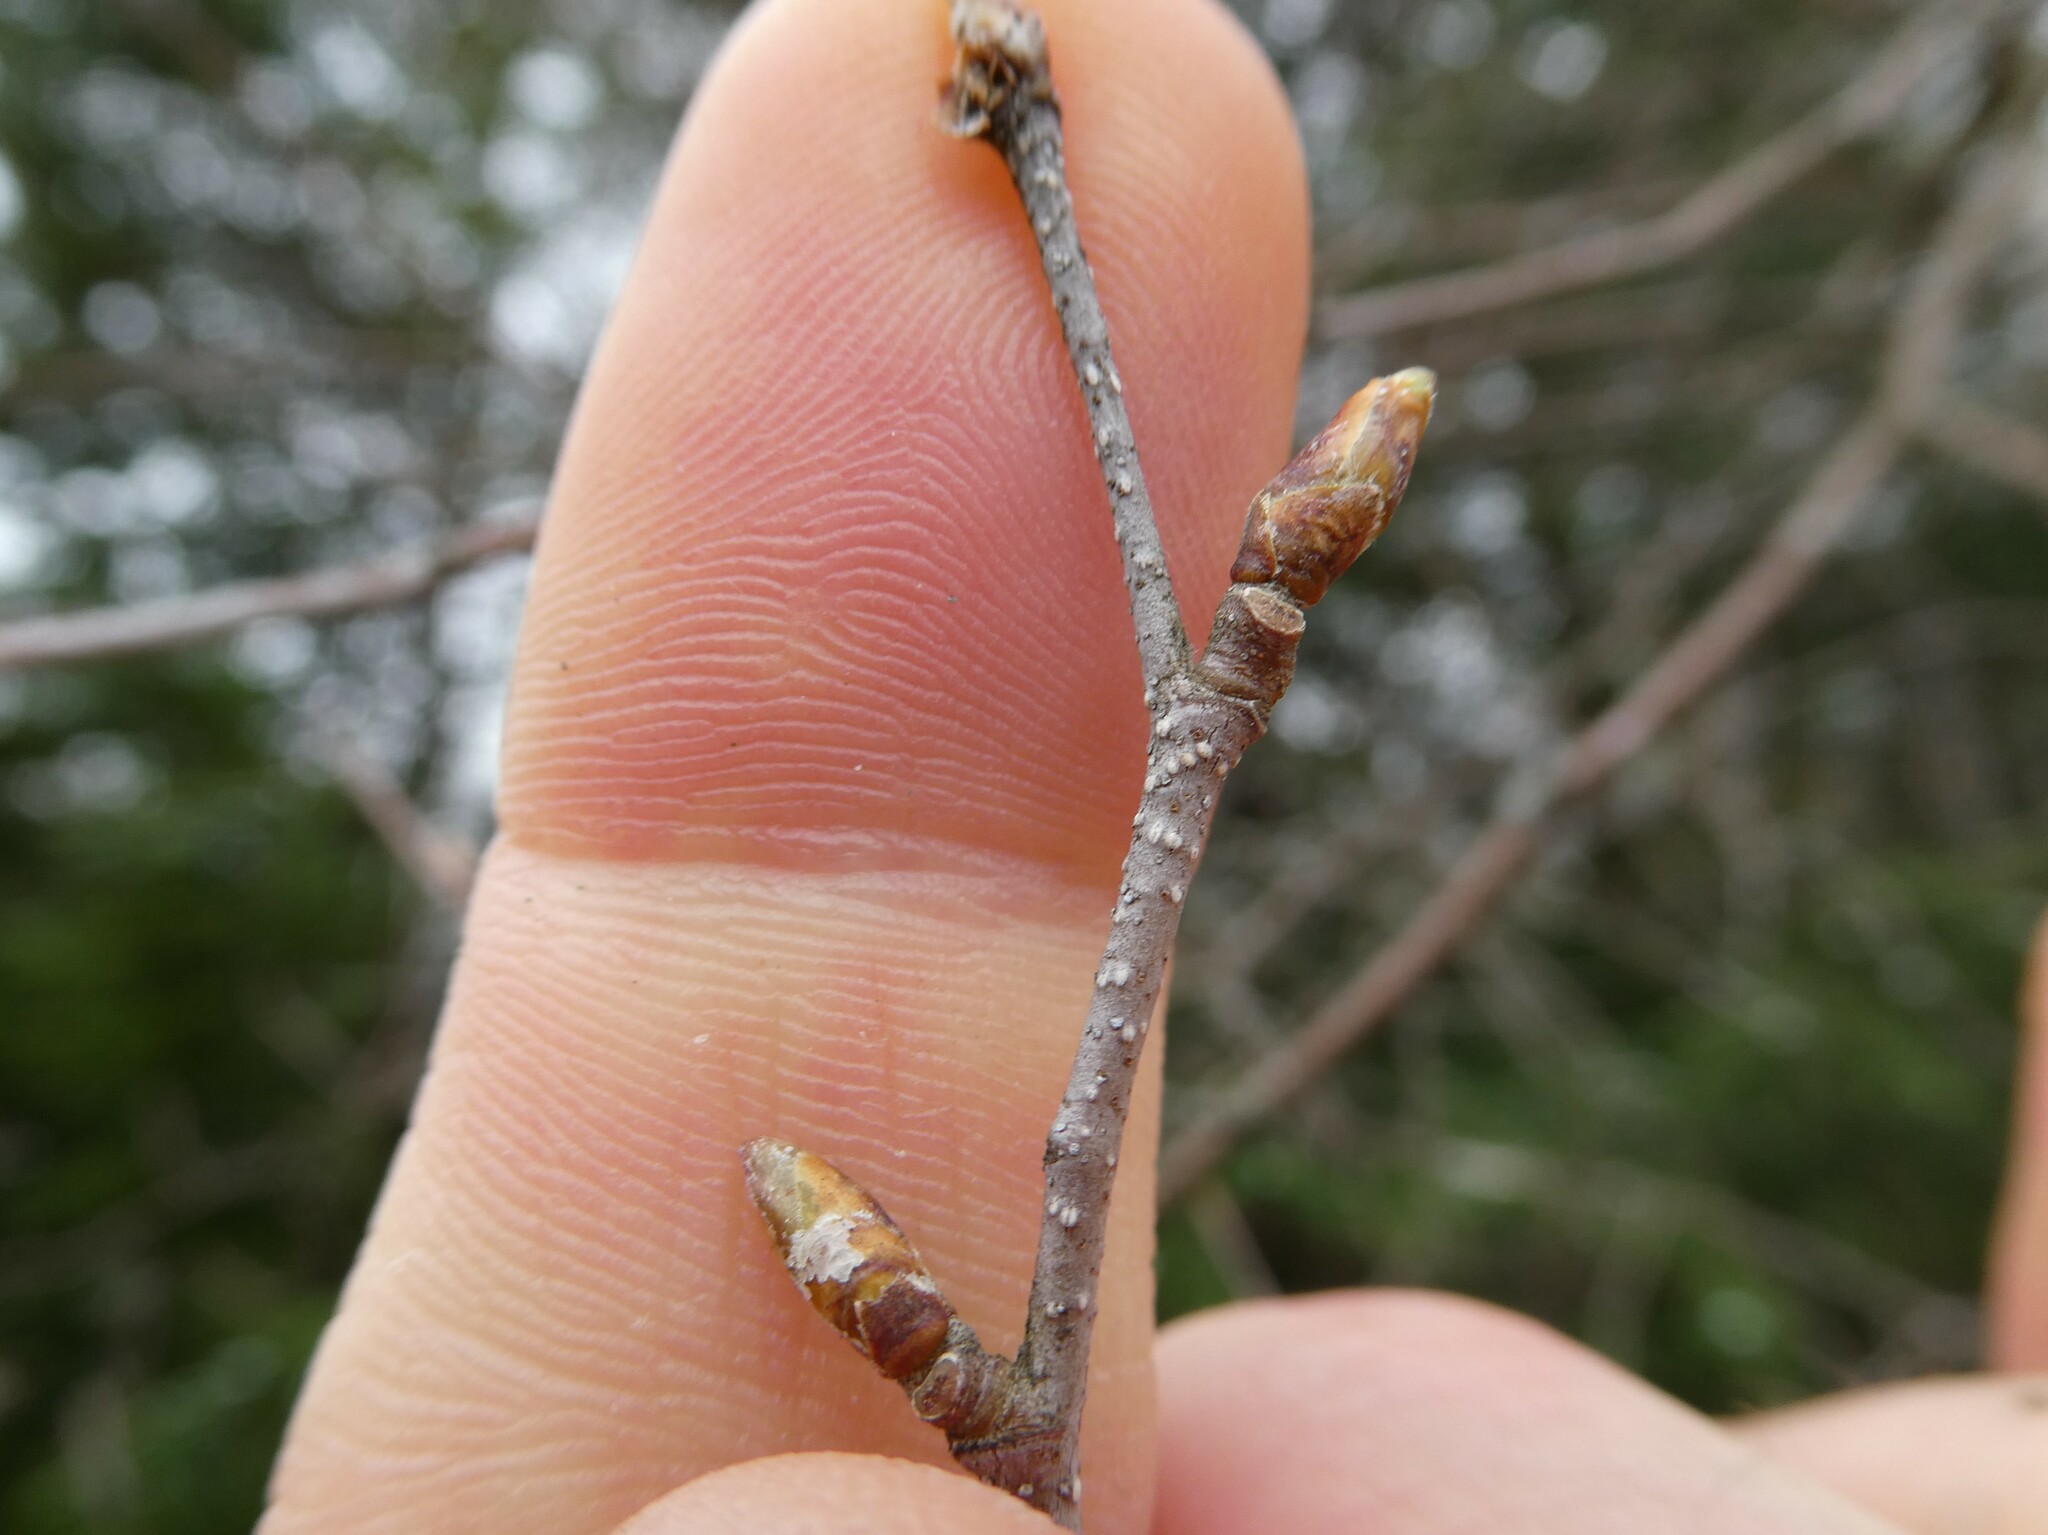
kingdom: Plantae
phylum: Tracheophyta
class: Magnoliopsida
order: Fagales
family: Betulaceae
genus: Betula
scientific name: Betula populifolia
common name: Fire birch
